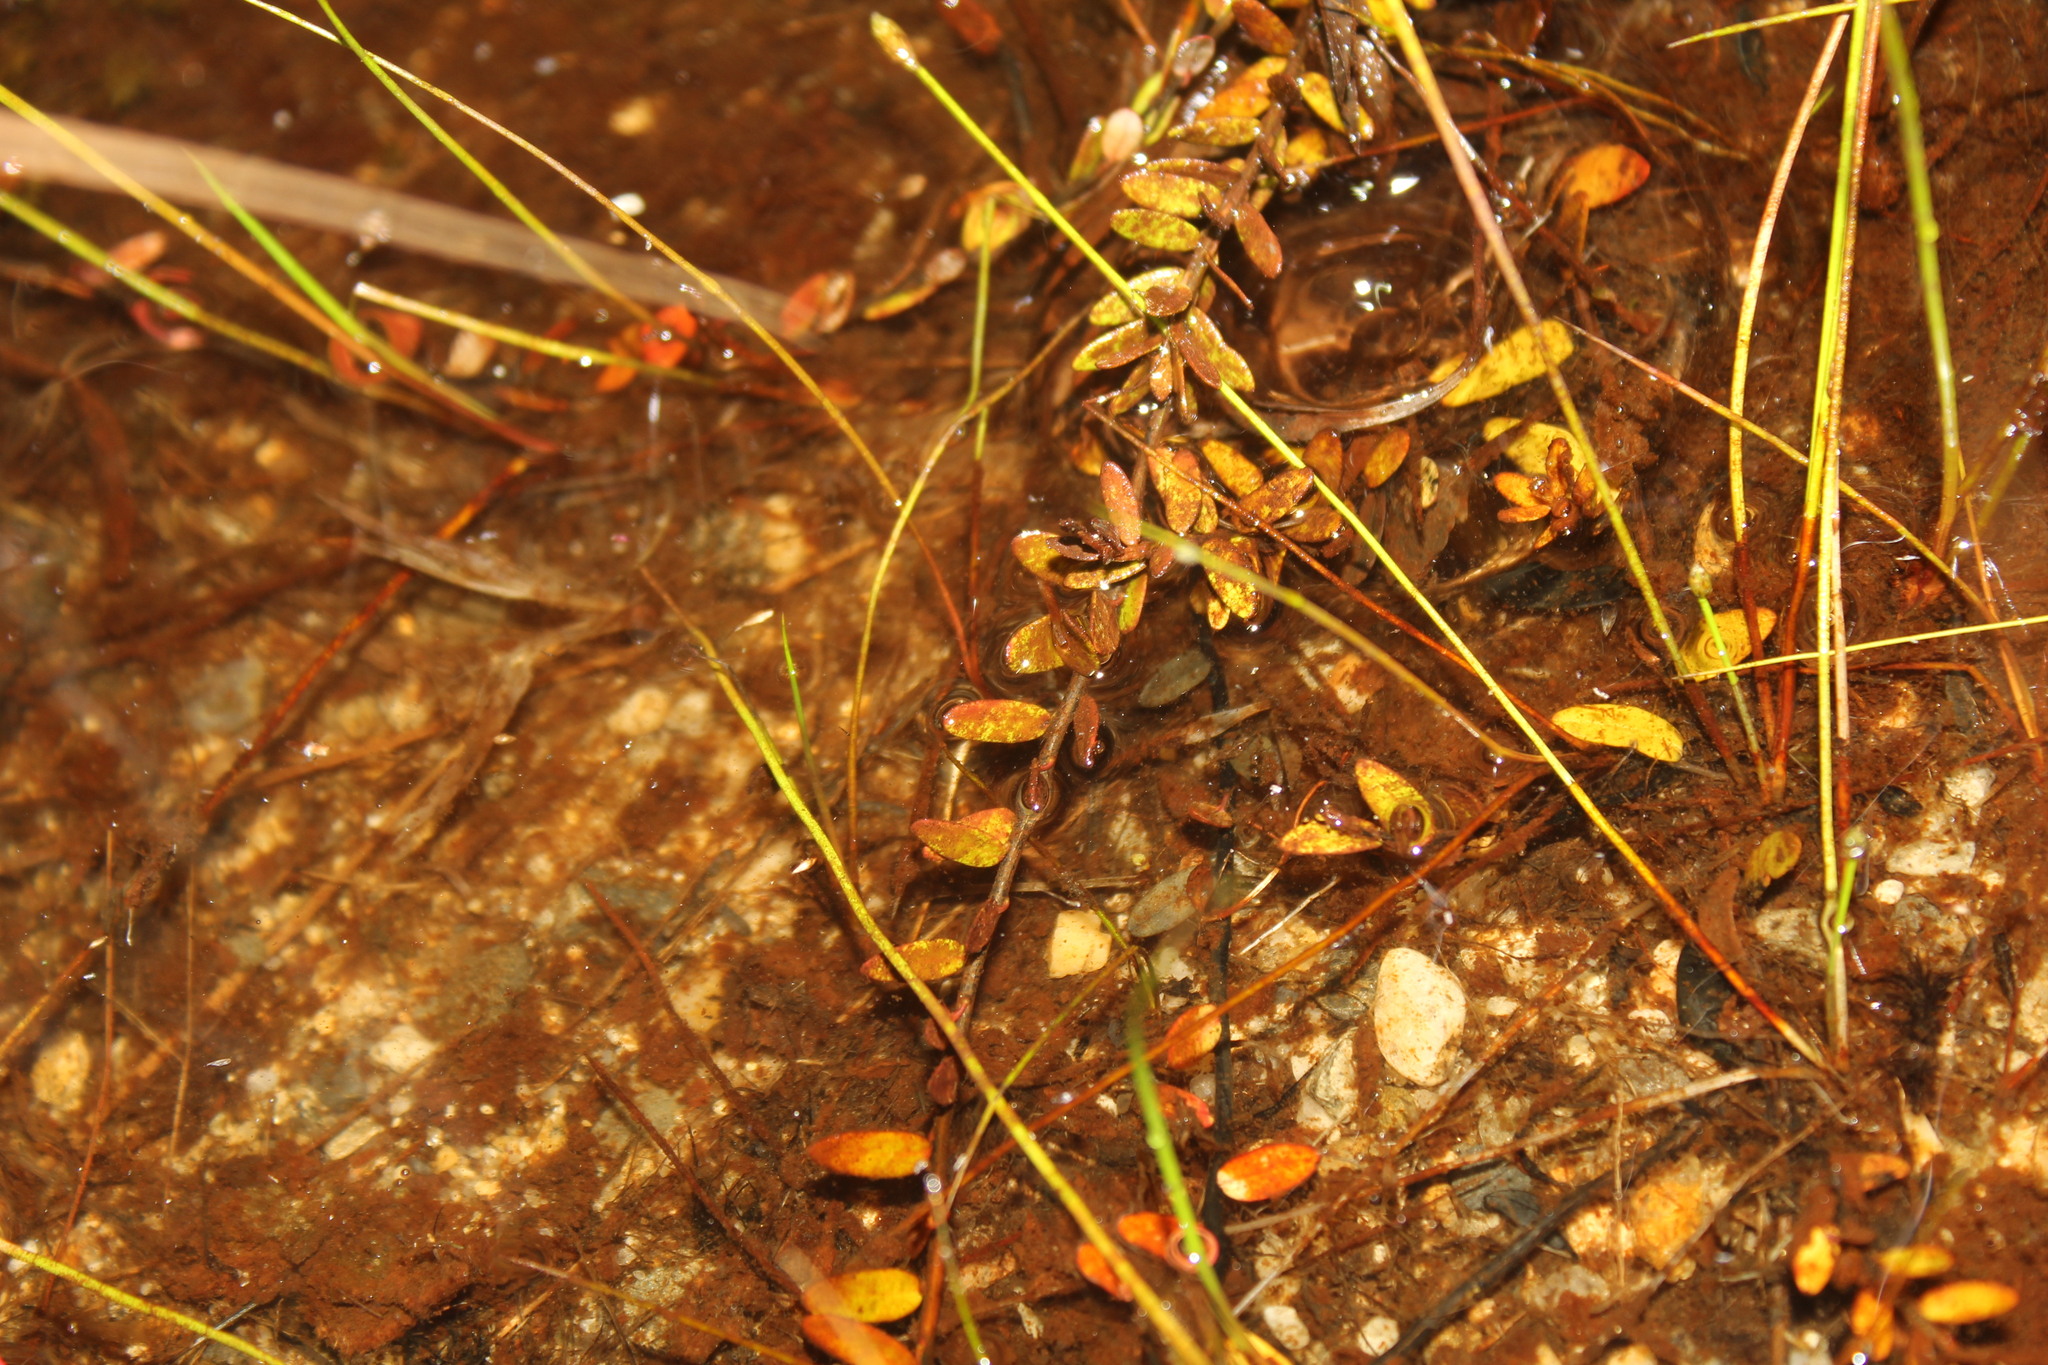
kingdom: Plantae
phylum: Tracheophyta
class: Magnoliopsida
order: Ericales
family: Ericaceae
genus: Vaccinium
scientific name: Vaccinium macrocarpon
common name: American cranberry
